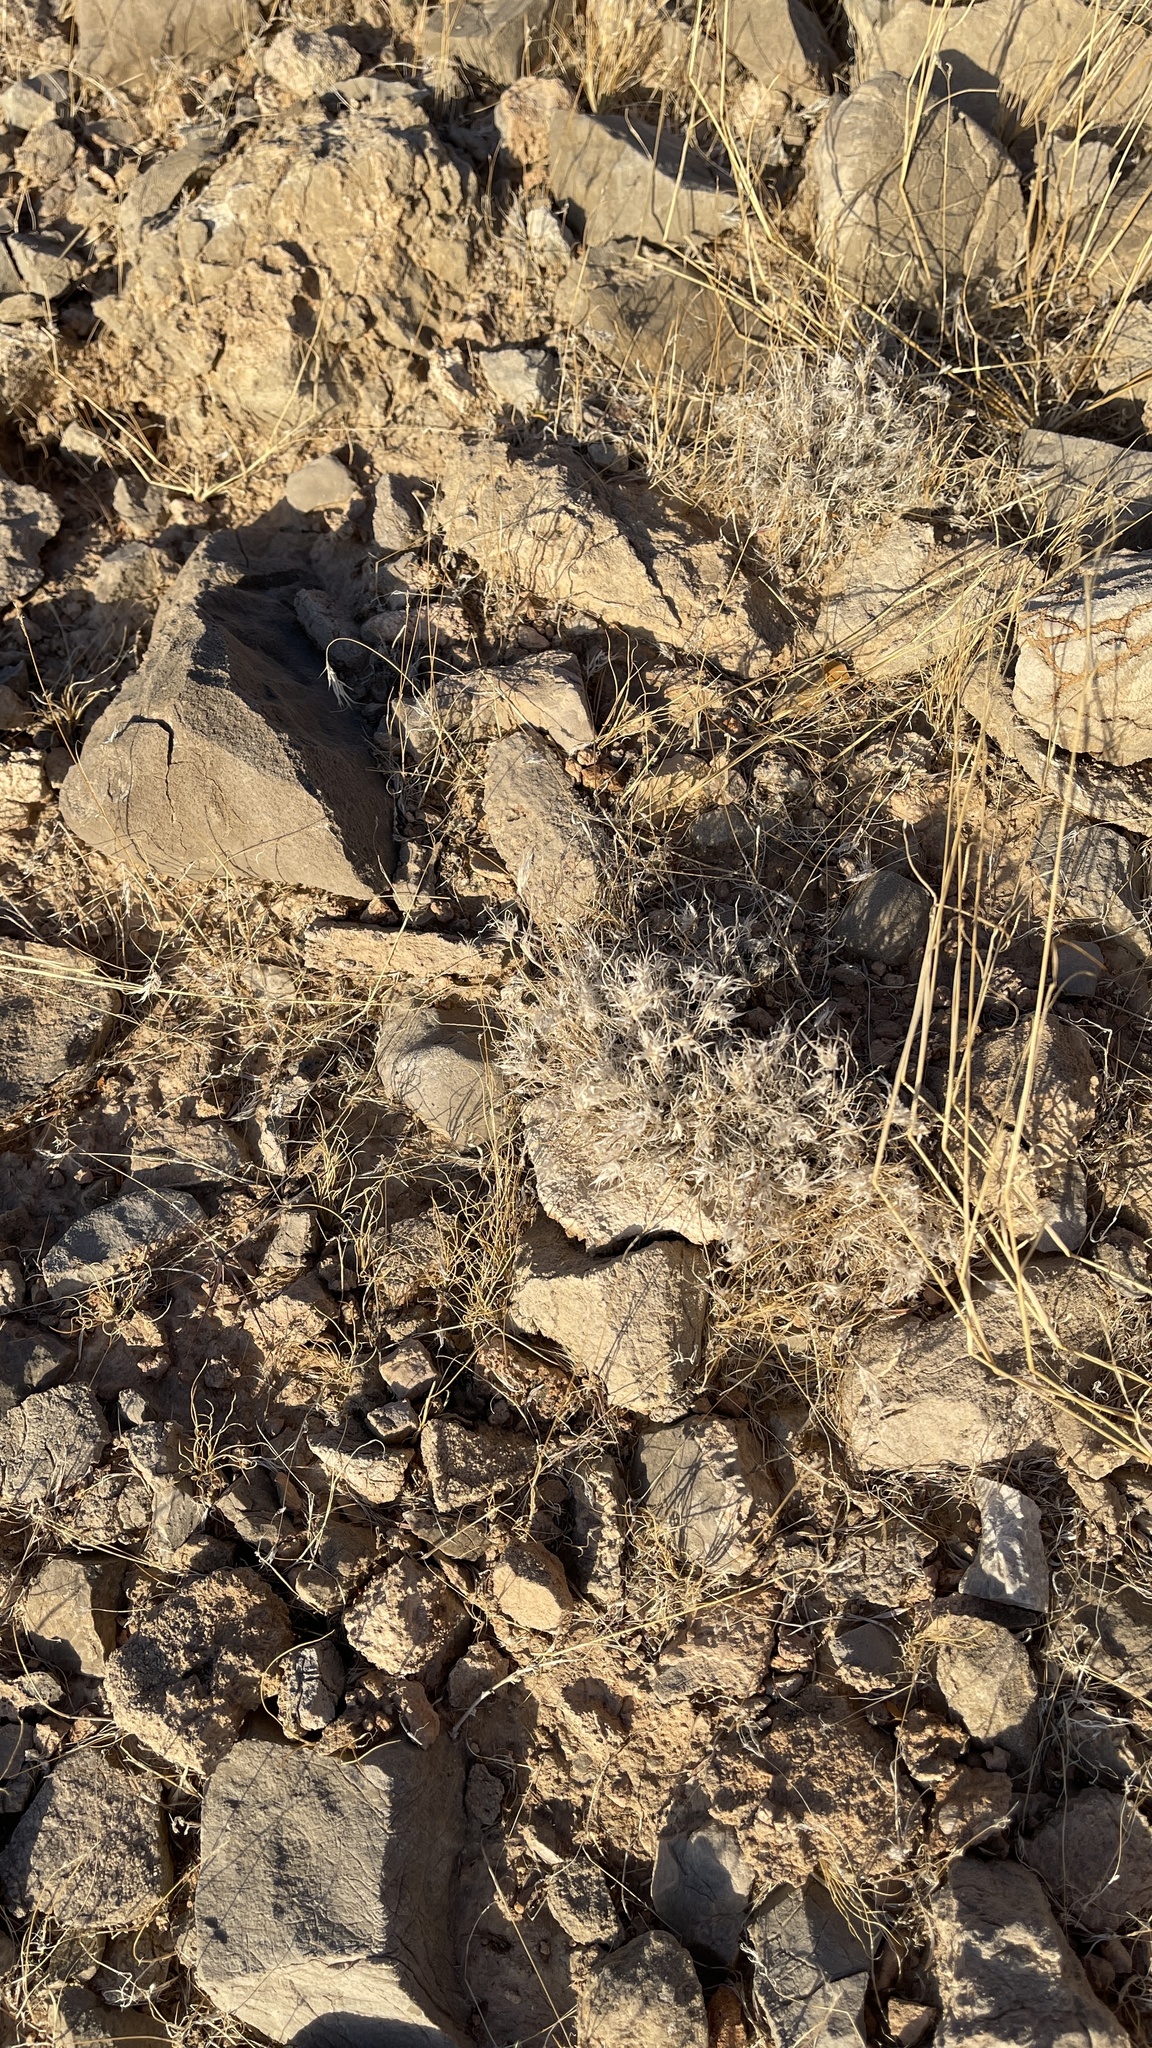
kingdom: Plantae
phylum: Tracheophyta
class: Liliopsida
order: Poales
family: Poaceae
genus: Dasyochloa
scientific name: Dasyochloa pulchella
